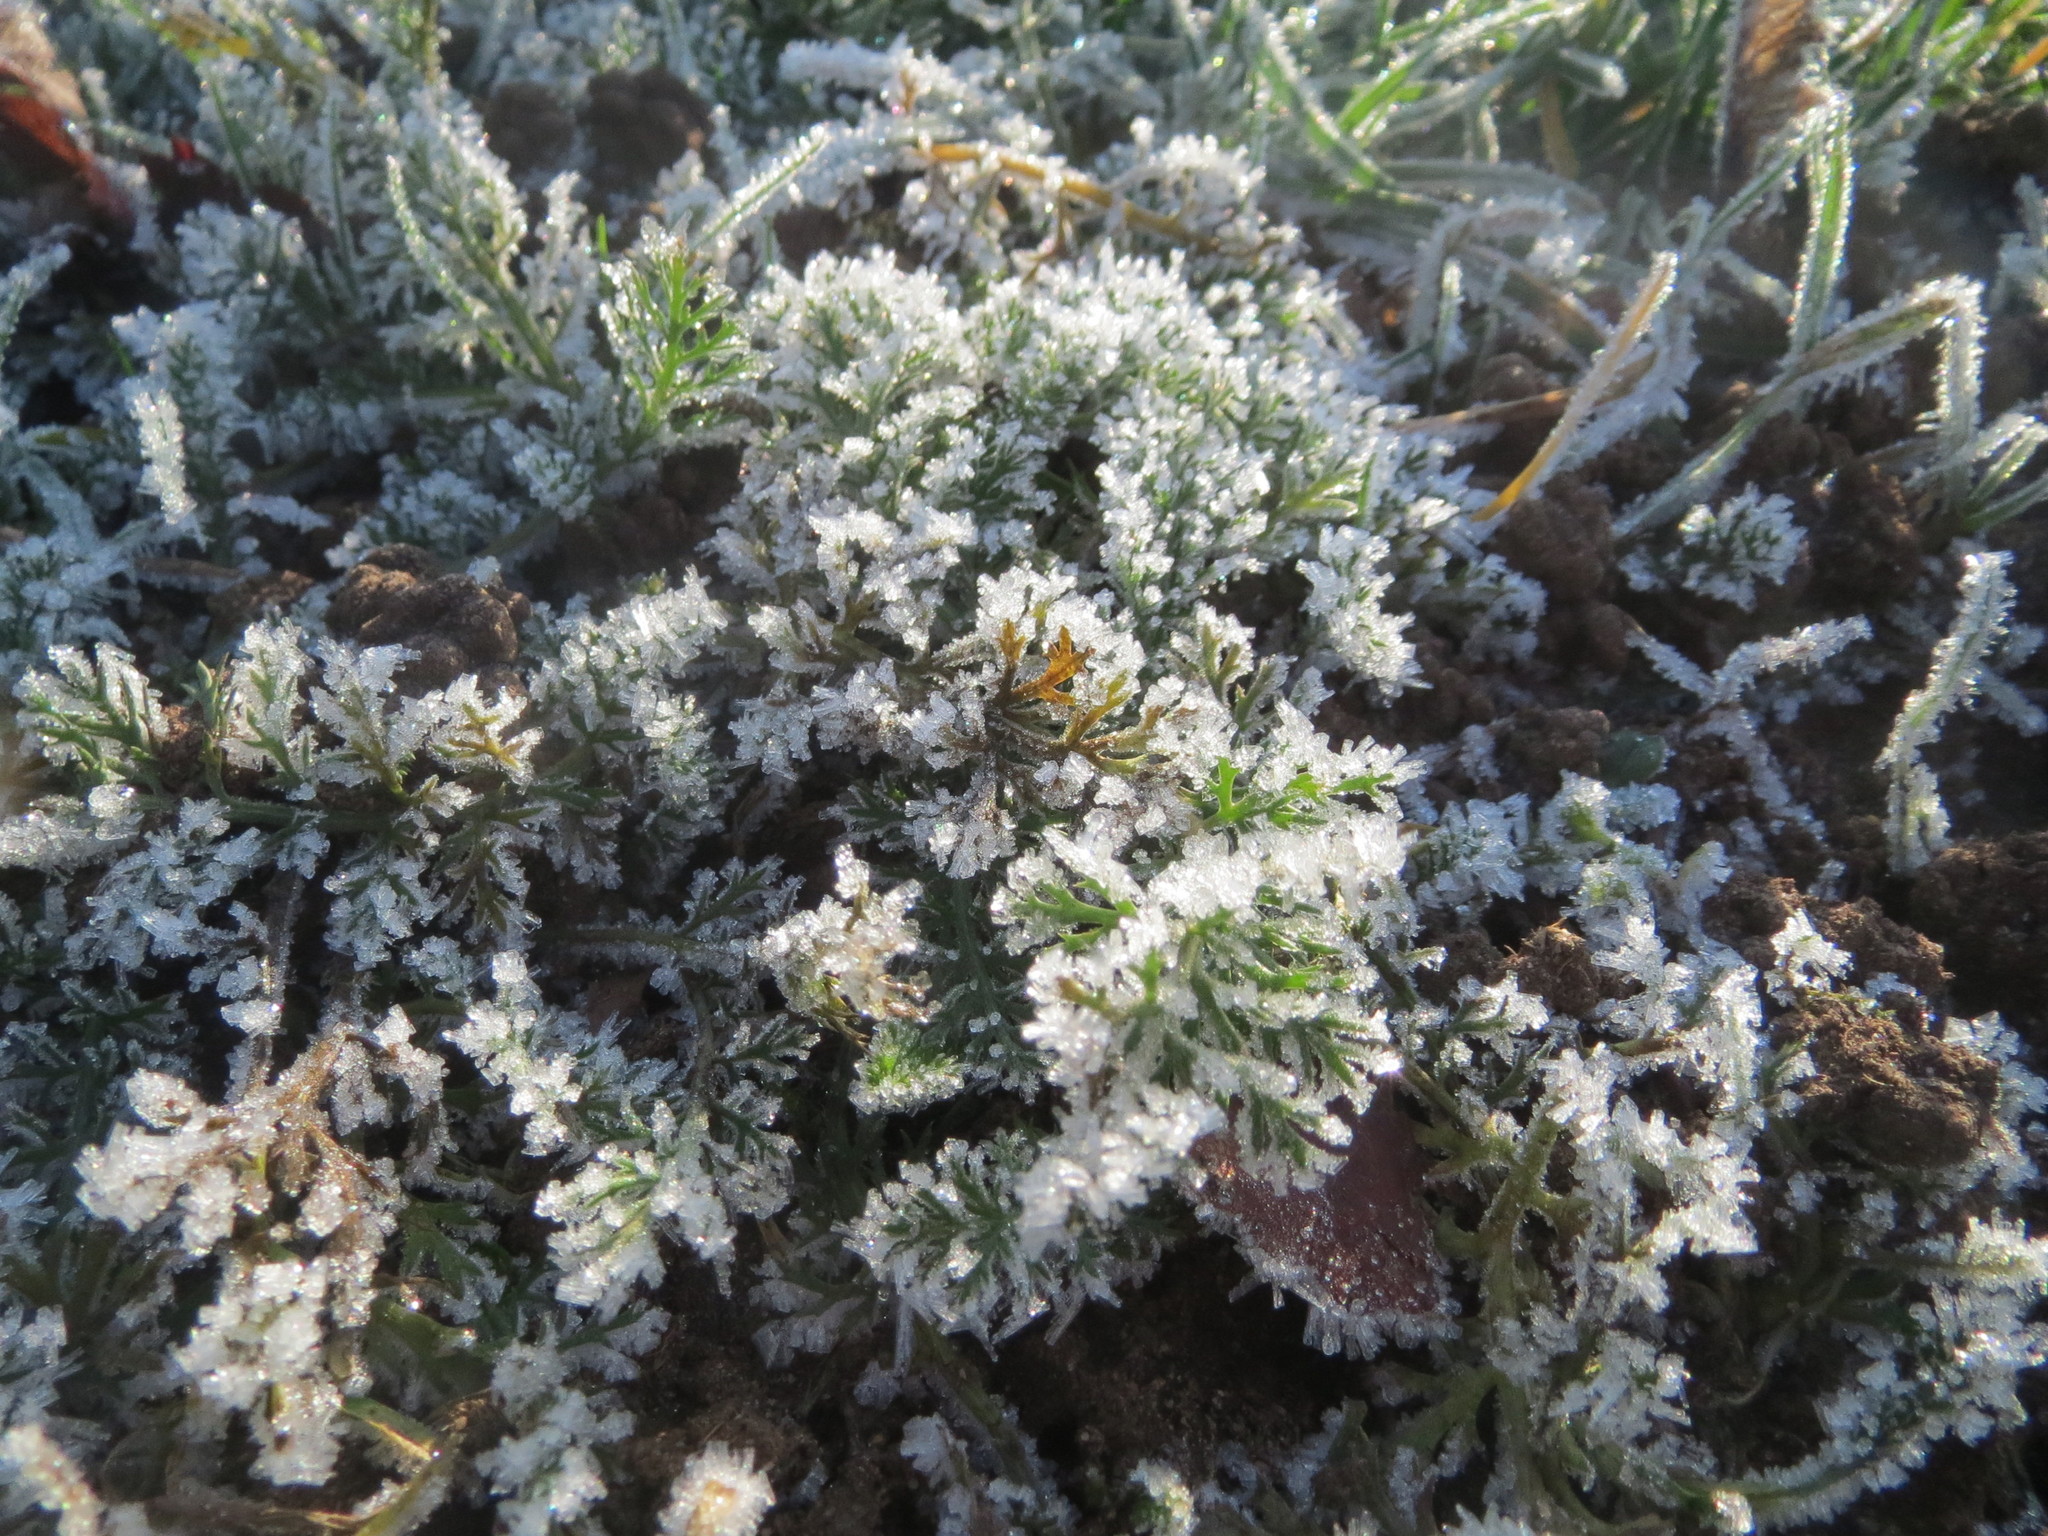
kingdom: Plantae
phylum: Tracheophyta
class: Magnoliopsida
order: Asterales
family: Asteraceae
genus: Achillea
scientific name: Achillea millefolium
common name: Yarrow
